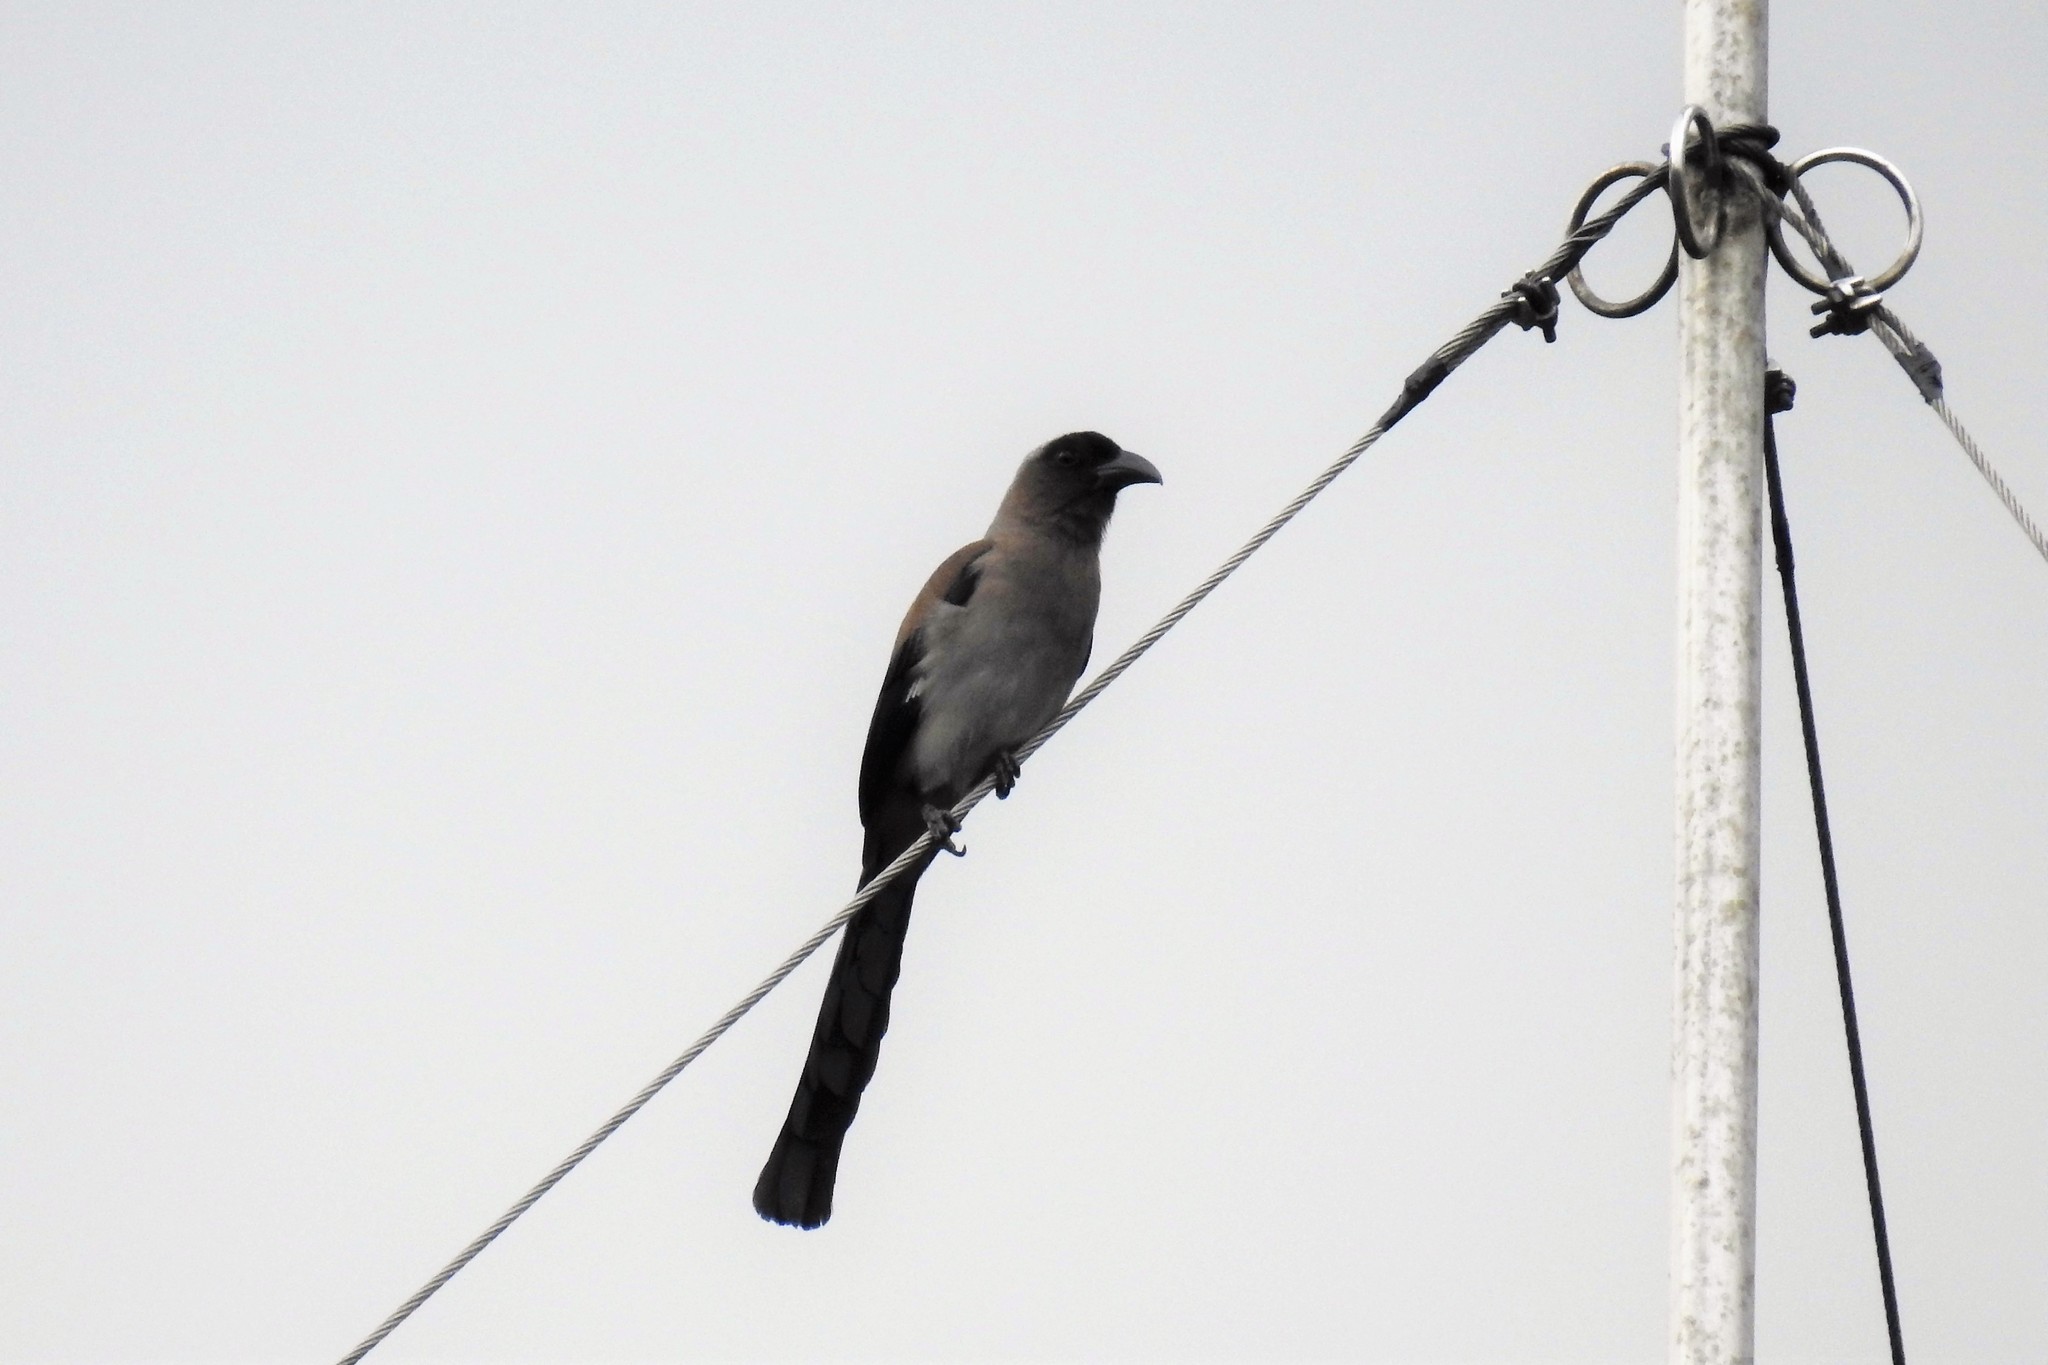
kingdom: Animalia
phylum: Chordata
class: Aves
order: Passeriformes
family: Corvidae
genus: Dendrocitta
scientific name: Dendrocitta formosae
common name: Grey treepie
